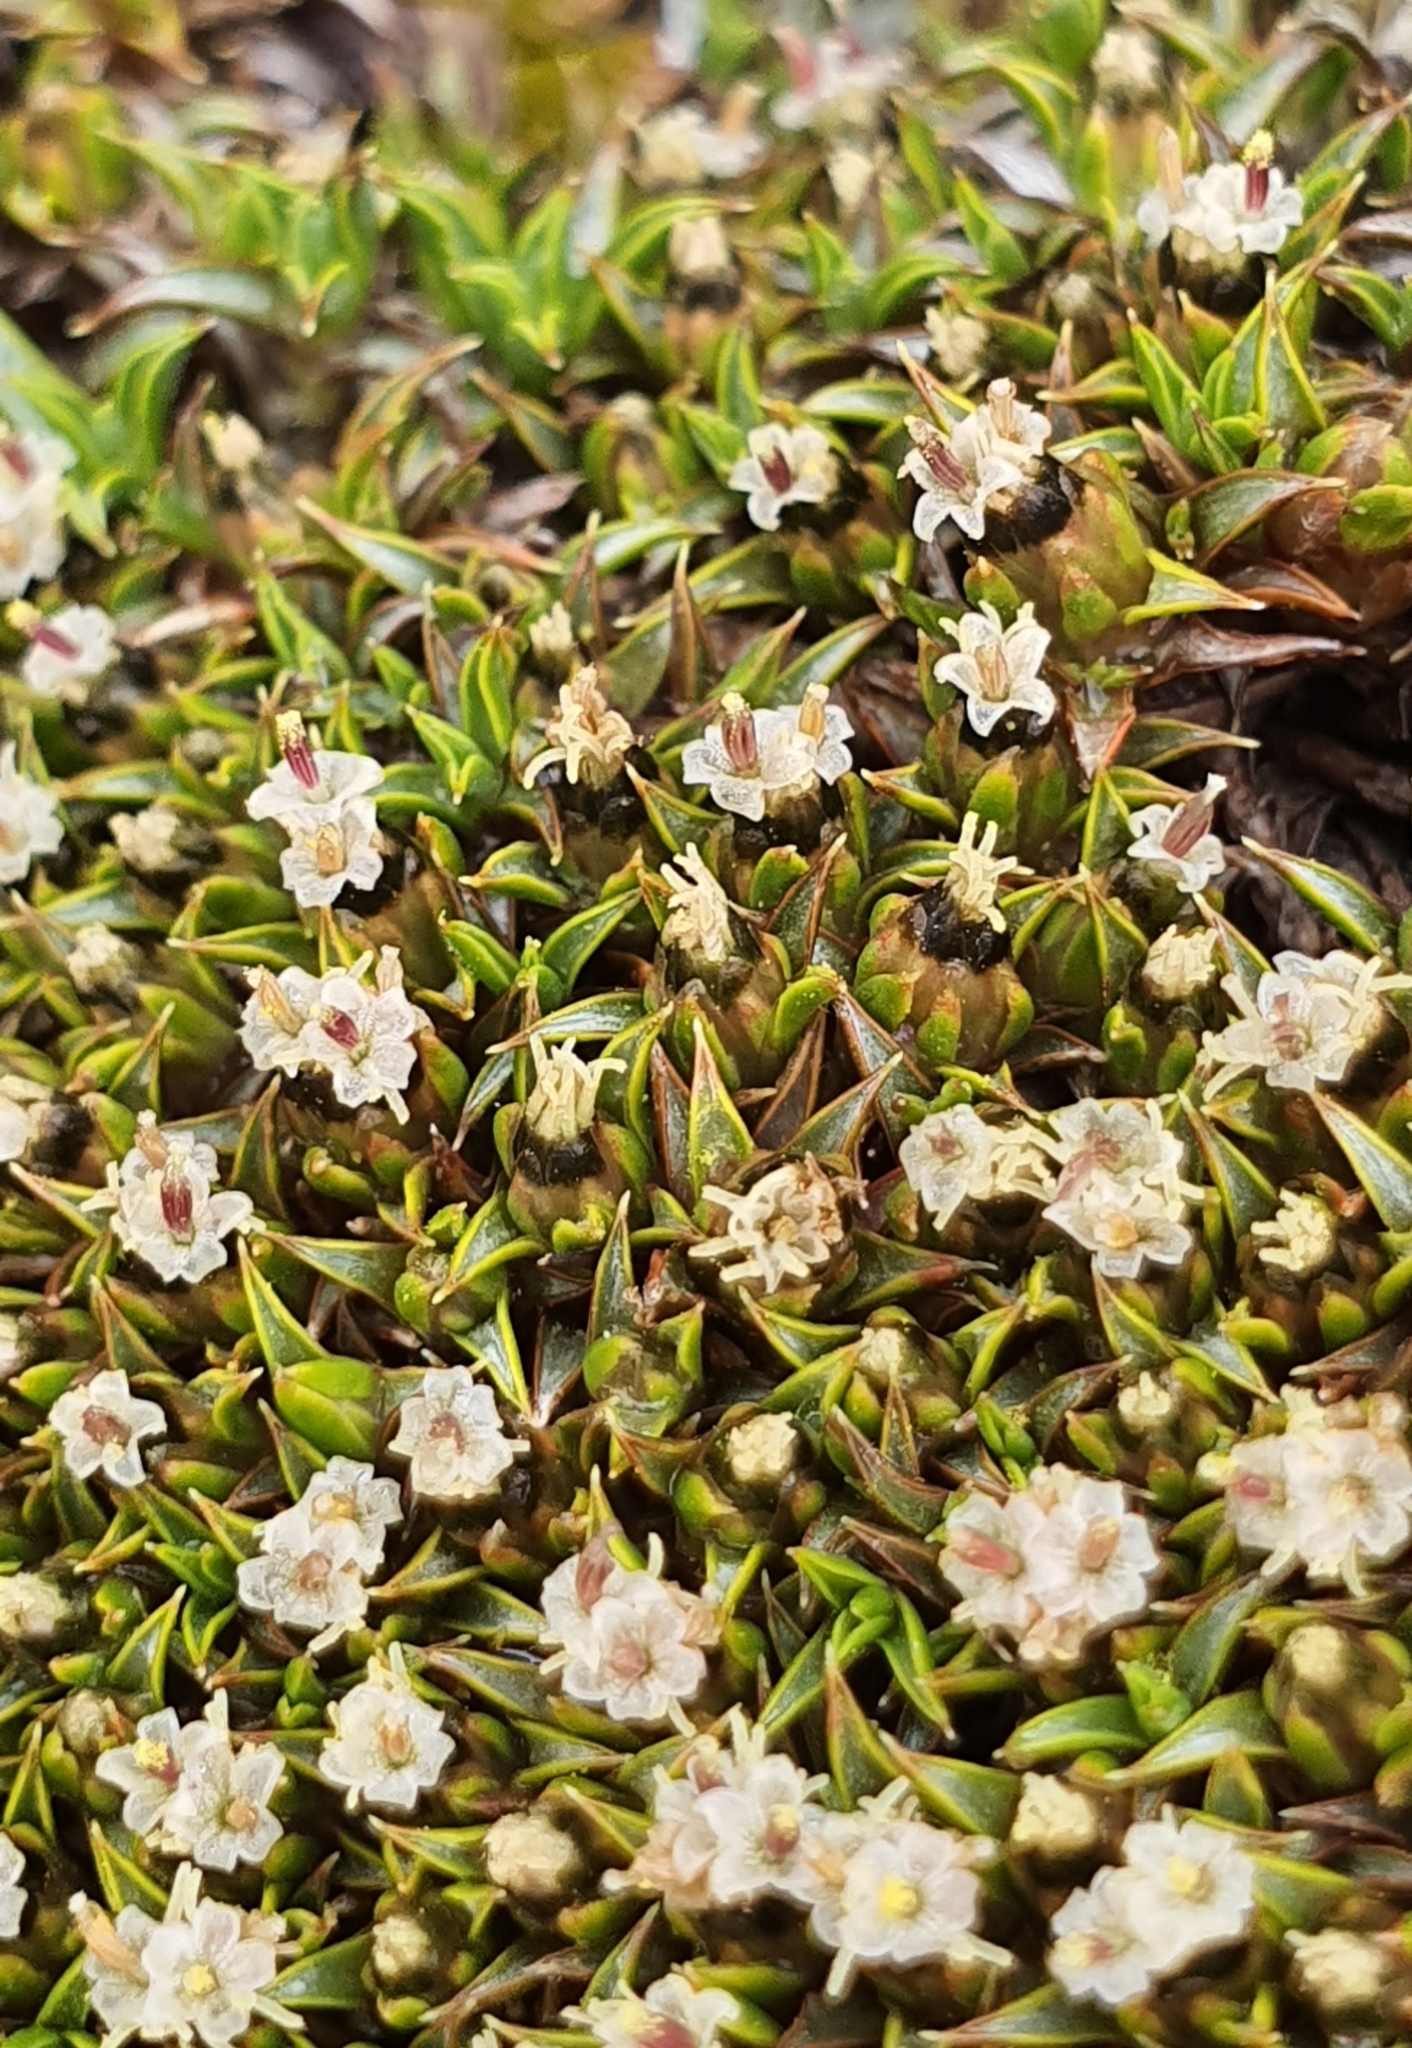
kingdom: Plantae
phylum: Tracheophyta
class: Magnoliopsida
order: Asterales
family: Asteraceae
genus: Raoulia
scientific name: Raoulia tenuicaulis
